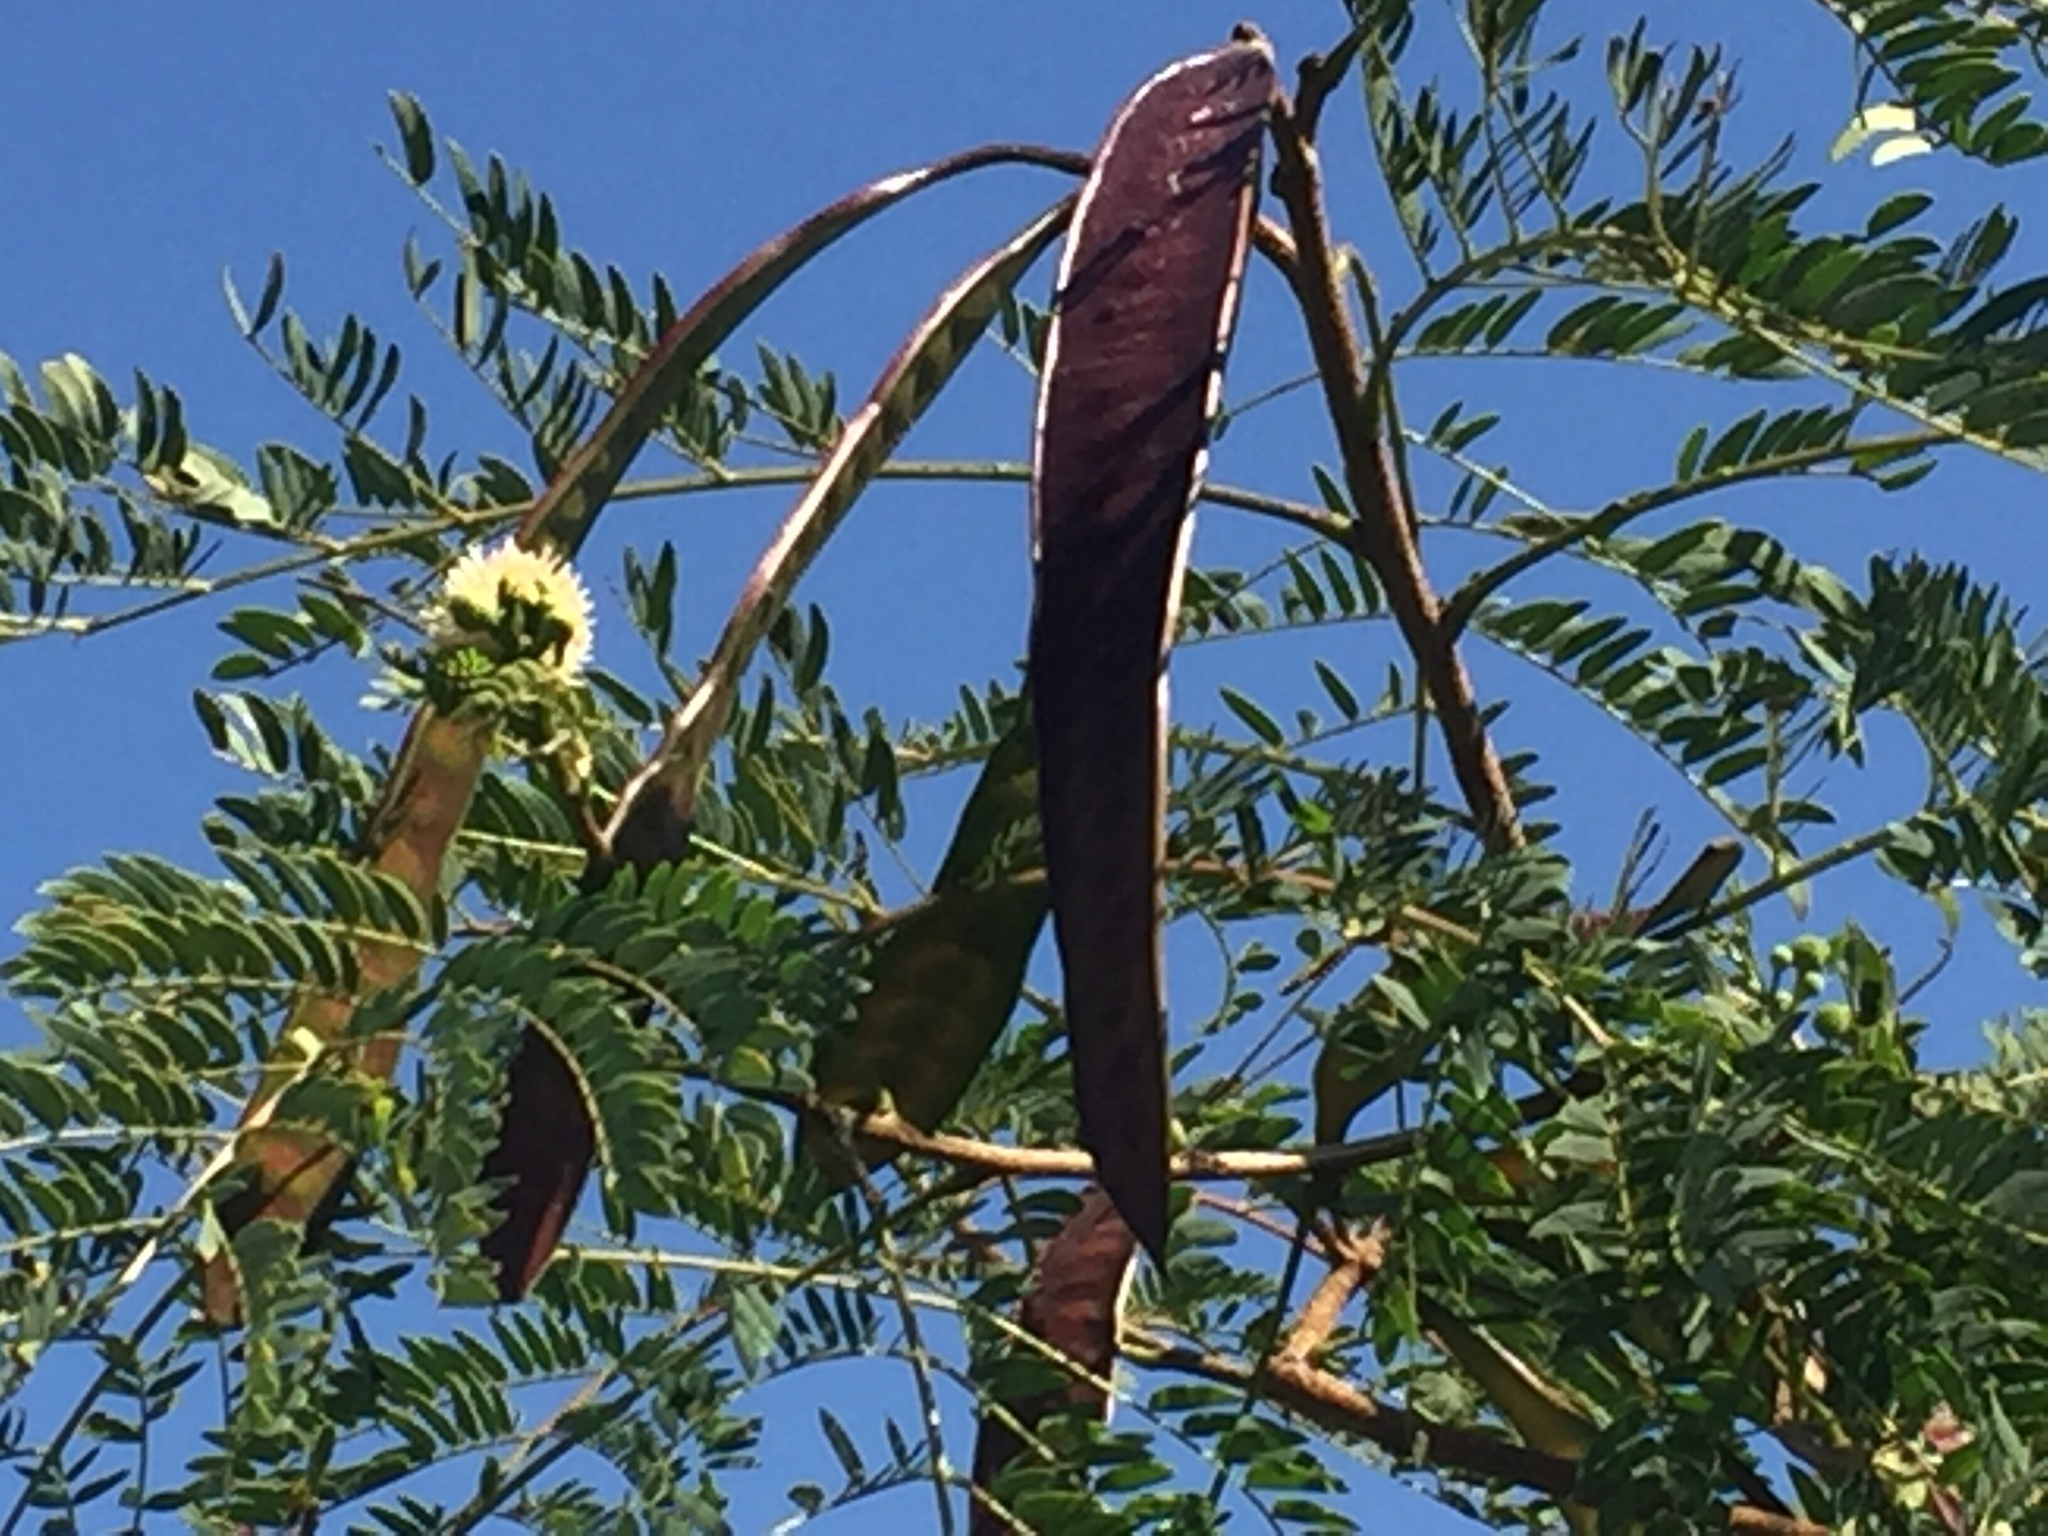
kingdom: Plantae
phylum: Tracheophyta
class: Magnoliopsida
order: Fabales
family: Fabaceae
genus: Leucaena
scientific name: Leucaena leucocephala
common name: White leadtree
